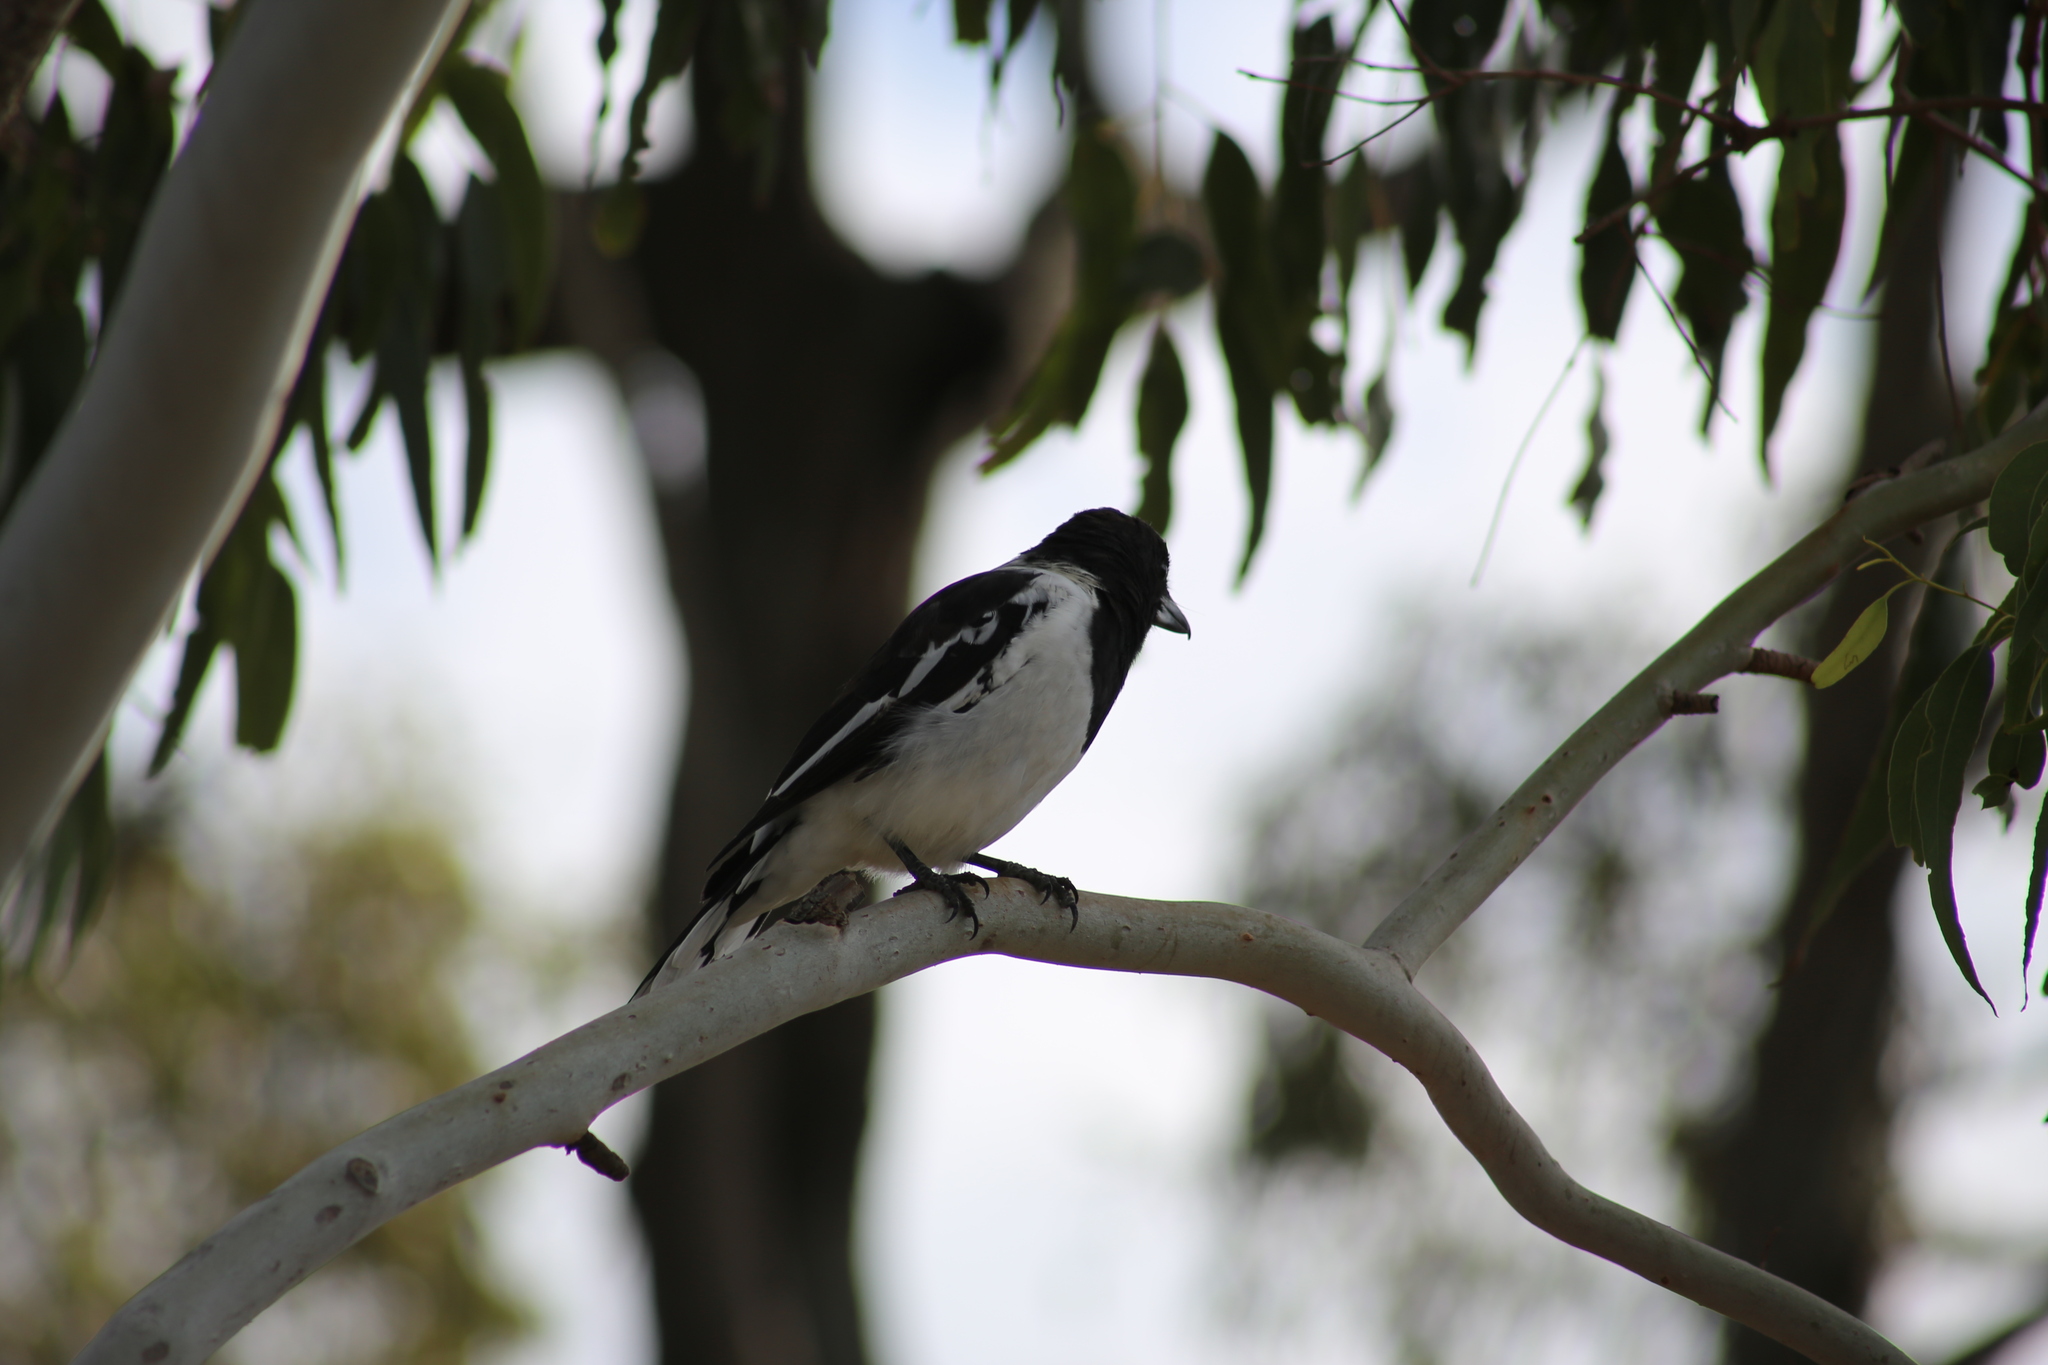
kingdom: Animalia
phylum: Chordata
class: Aves
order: Passeriformes
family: Cracticidae
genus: Cracticus
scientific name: Cracticus nigrogularis
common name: Pied butcherbird
